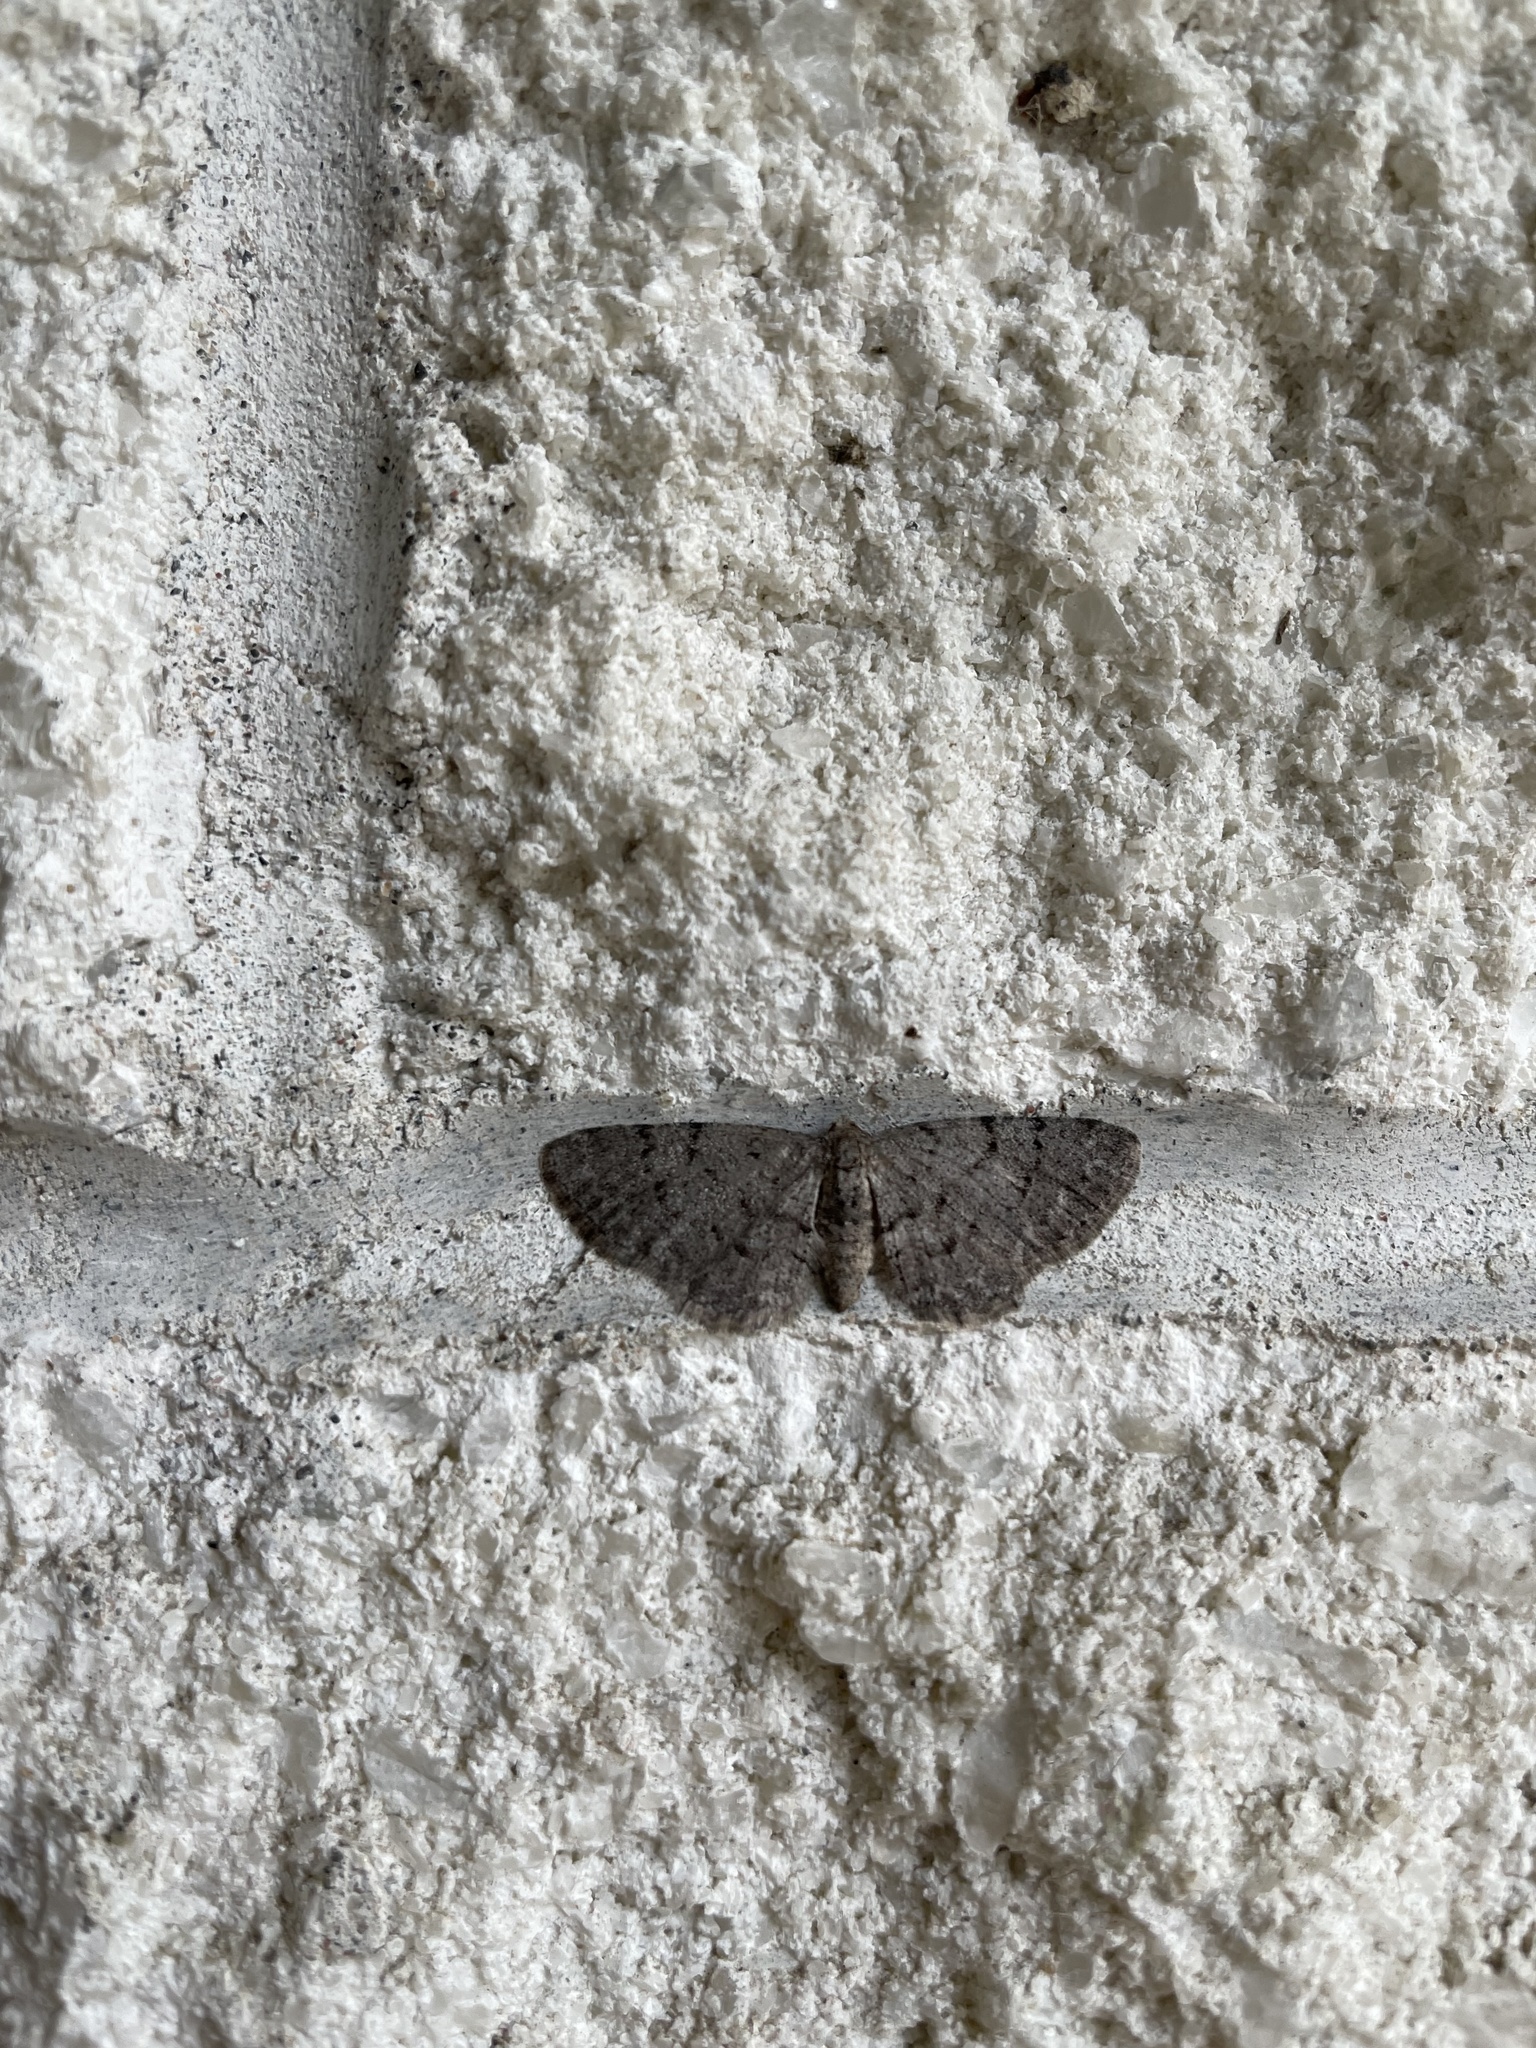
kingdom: Animalia
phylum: Arthropoda
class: Insecta
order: Lepidoptera
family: Geometridae
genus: Aethalura
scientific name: Aethalura intertexta
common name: Four-barred gray
